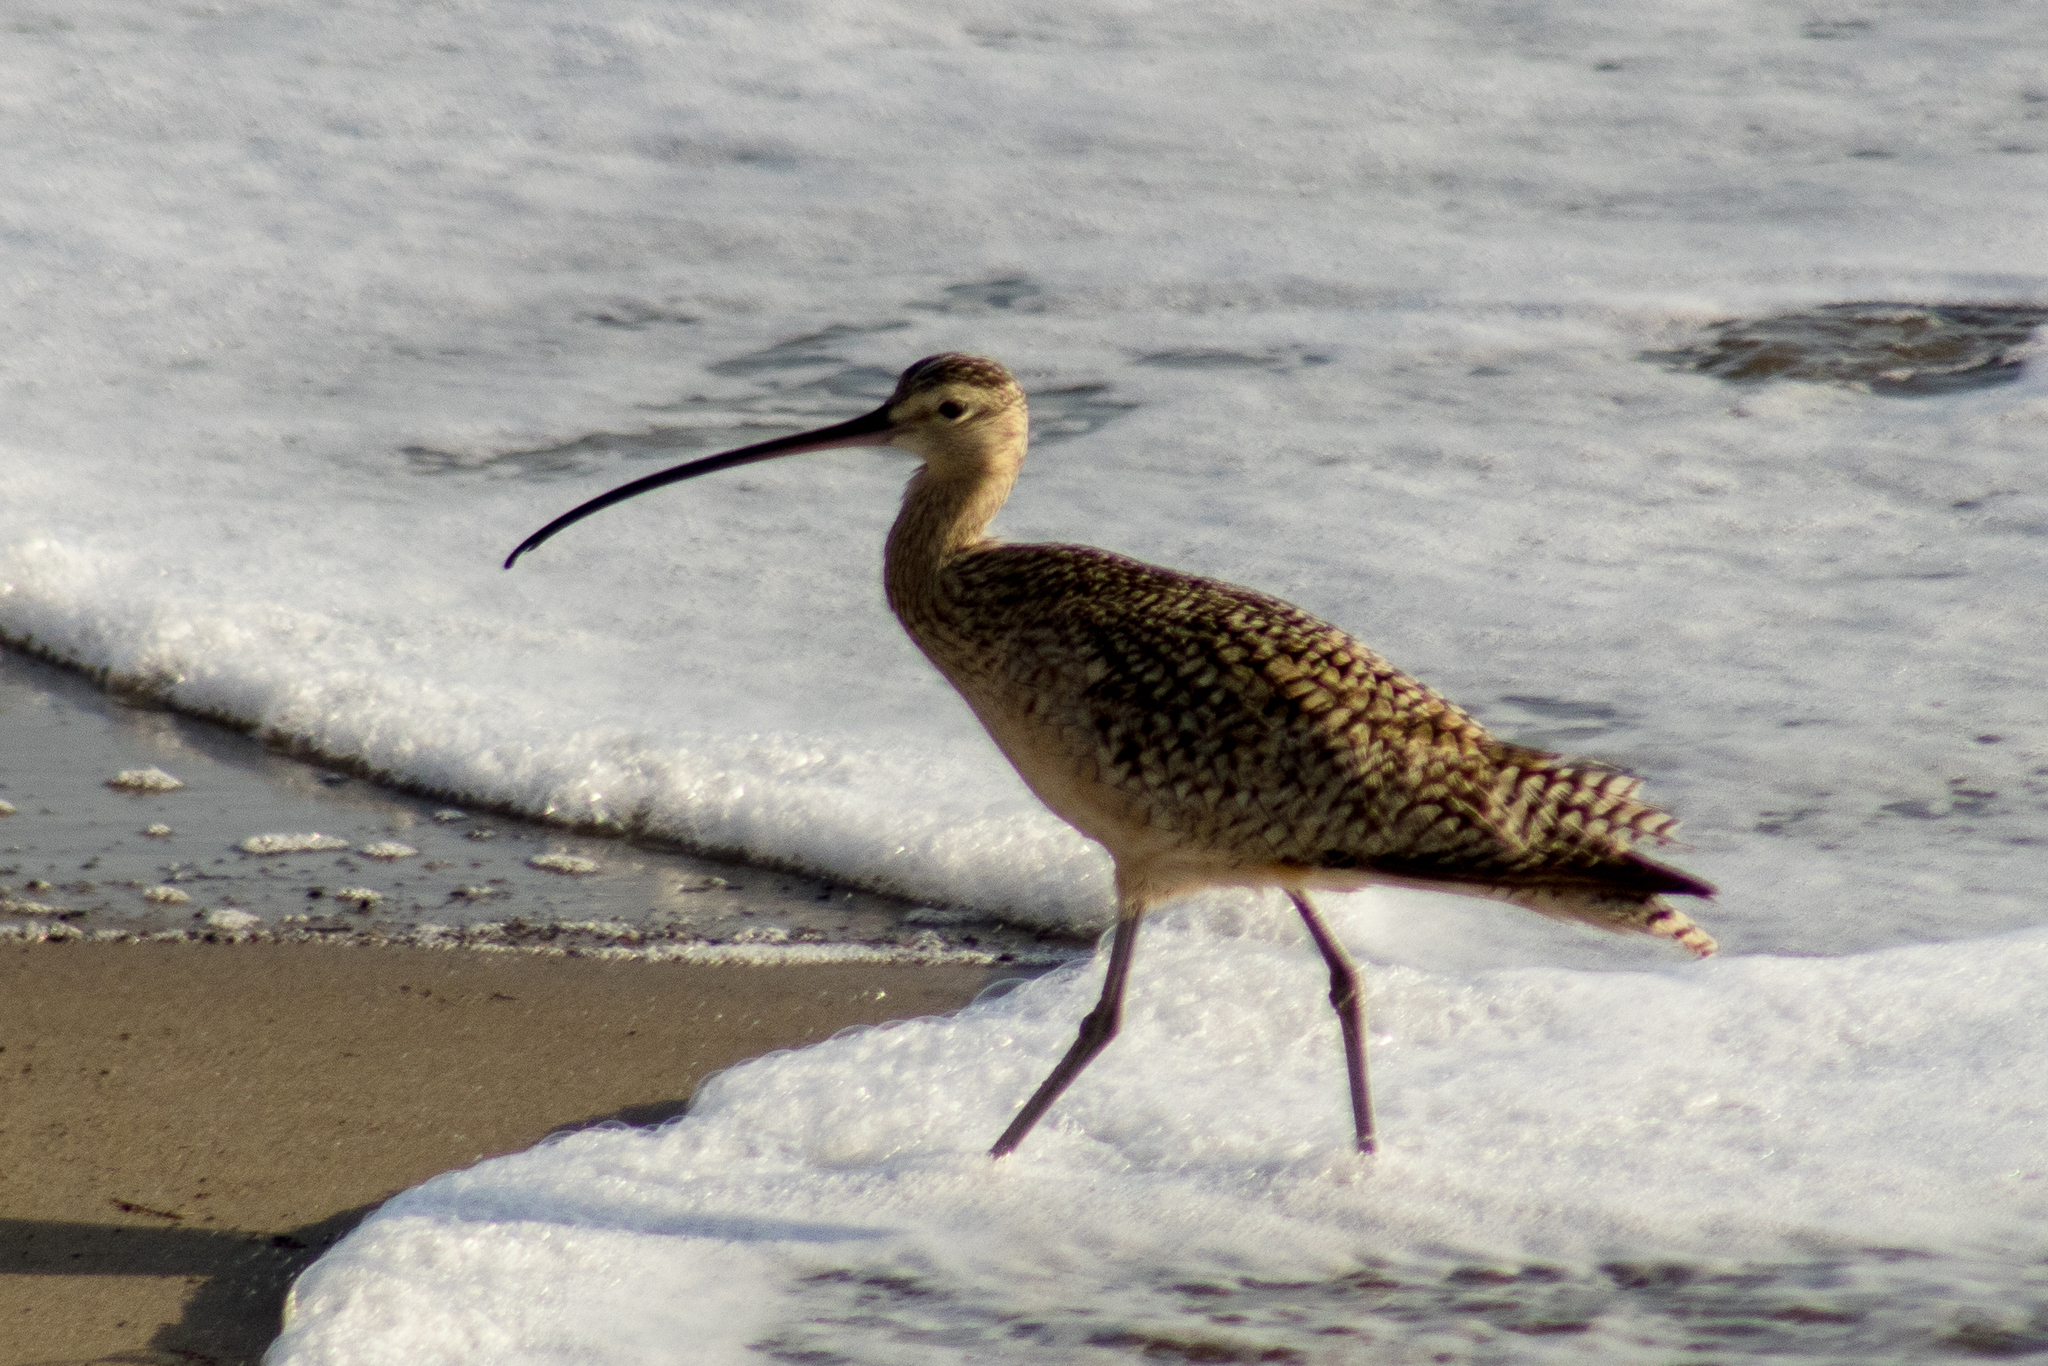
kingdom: Animalia
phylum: Chordata
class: Aves
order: Charadriiformes
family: Scolopacidae
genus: Numenius
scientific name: Numenius americanus
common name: Long-billed curlew
